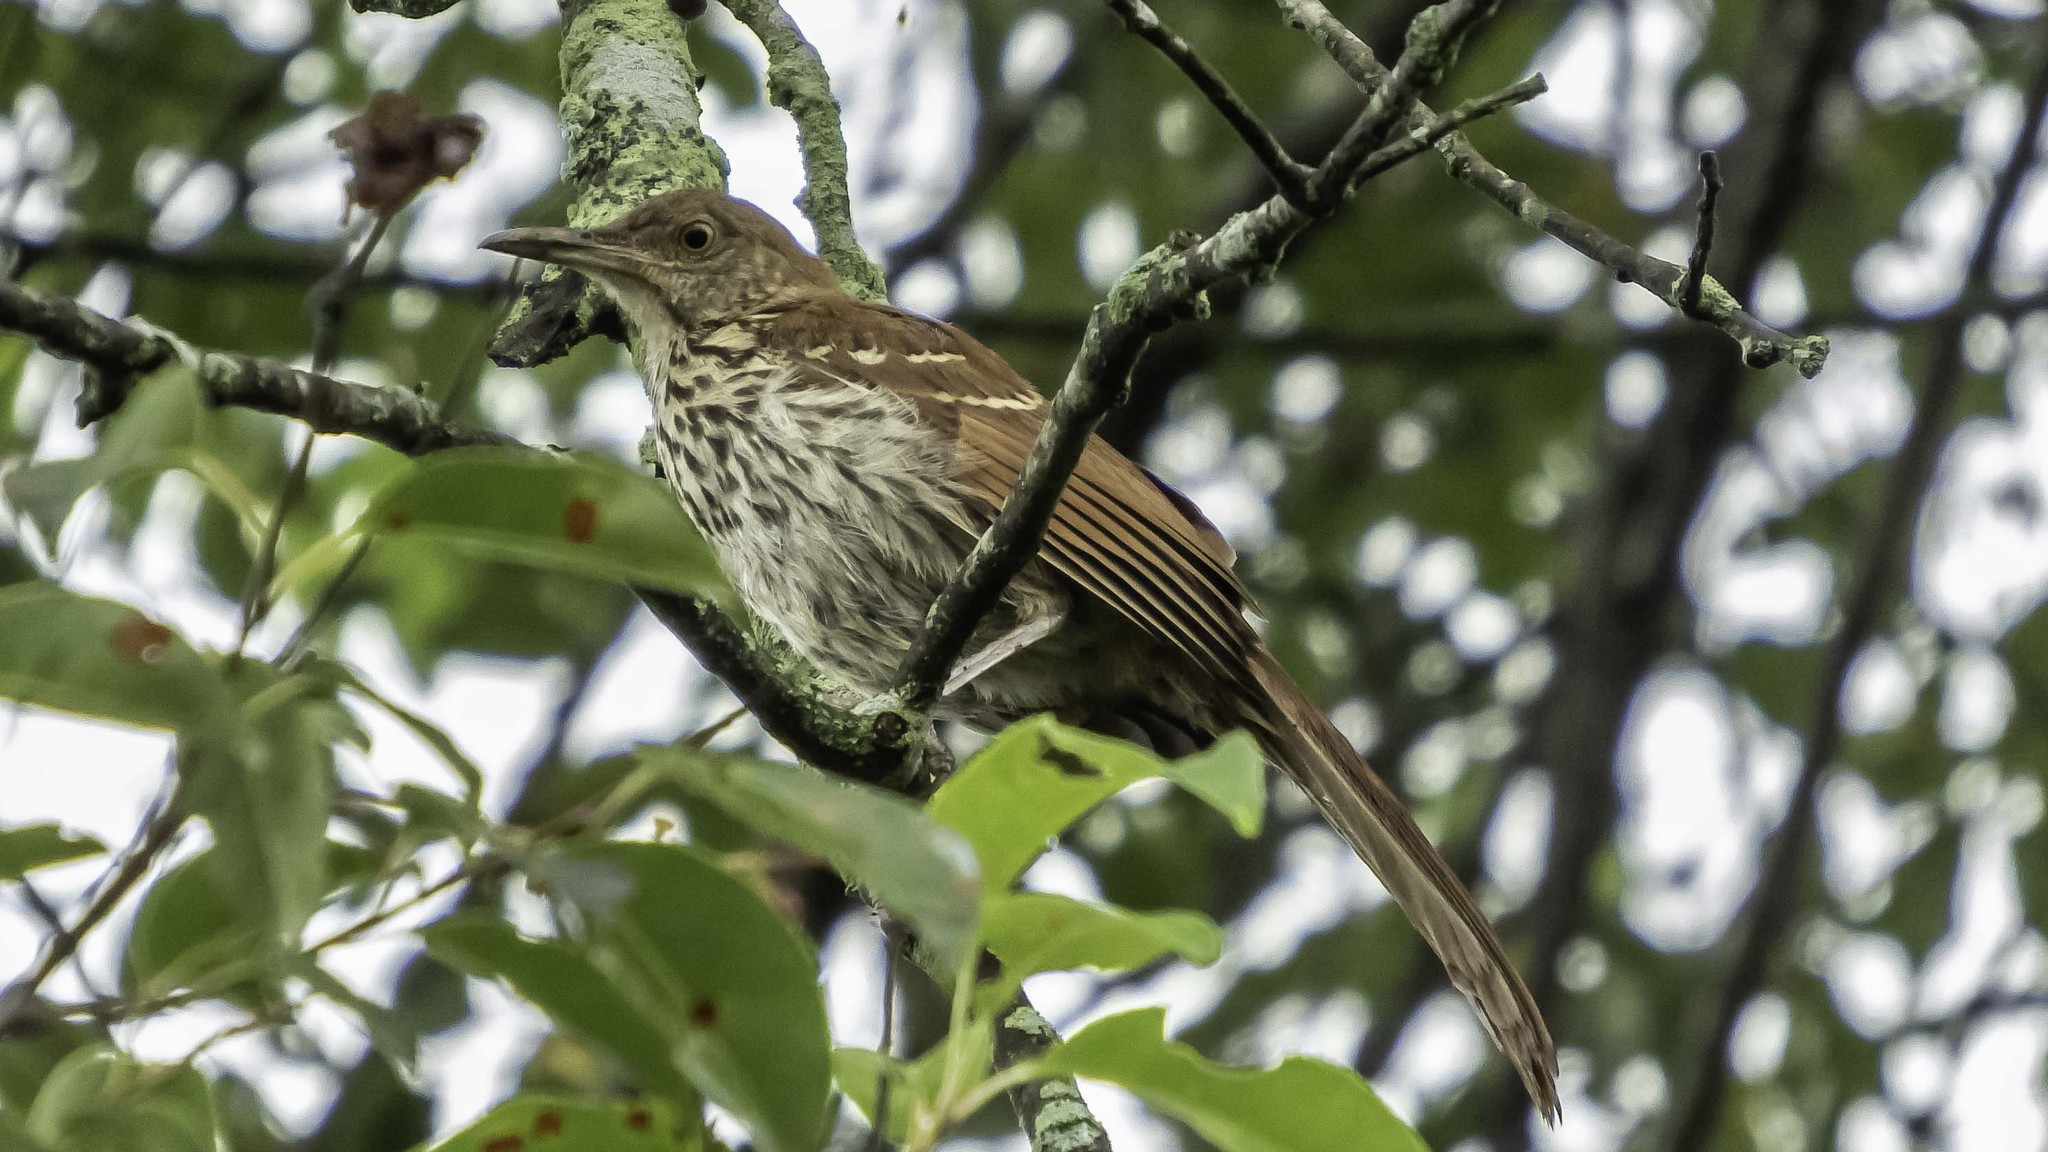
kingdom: Animalia
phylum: Chordata
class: Aves
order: Passeriformes
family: Mimidae
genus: Toxostoma
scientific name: Toxostoma rufum
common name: Brown thrasher
